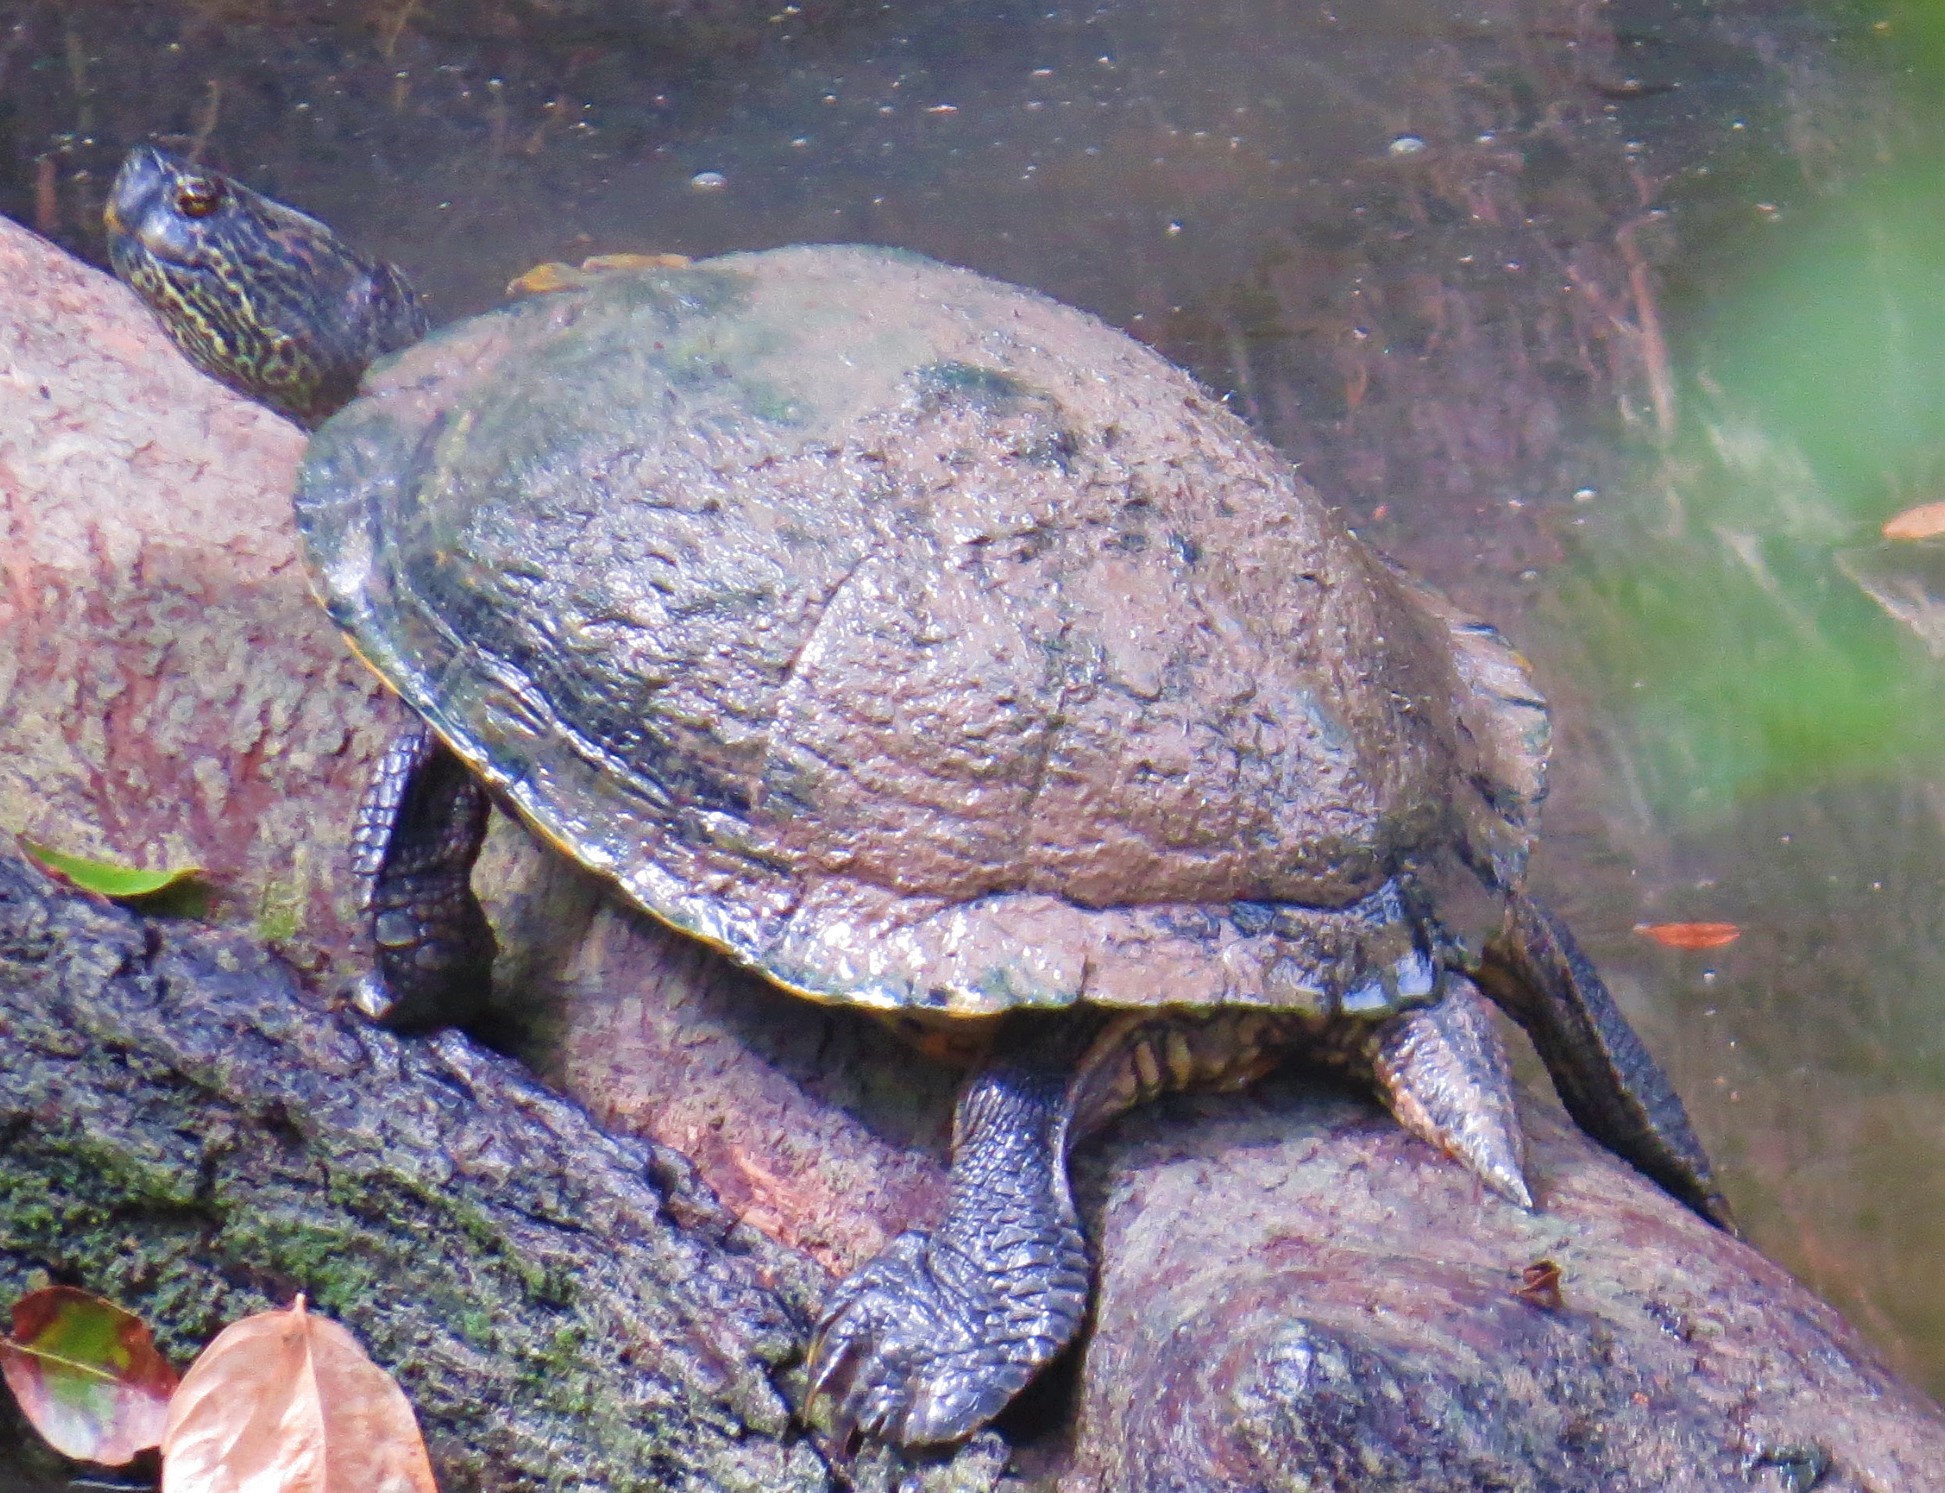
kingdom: Animalia
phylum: Chordata
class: Testudines
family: Emydidae
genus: Trachemys
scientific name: Trachemys scripta
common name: Slider
